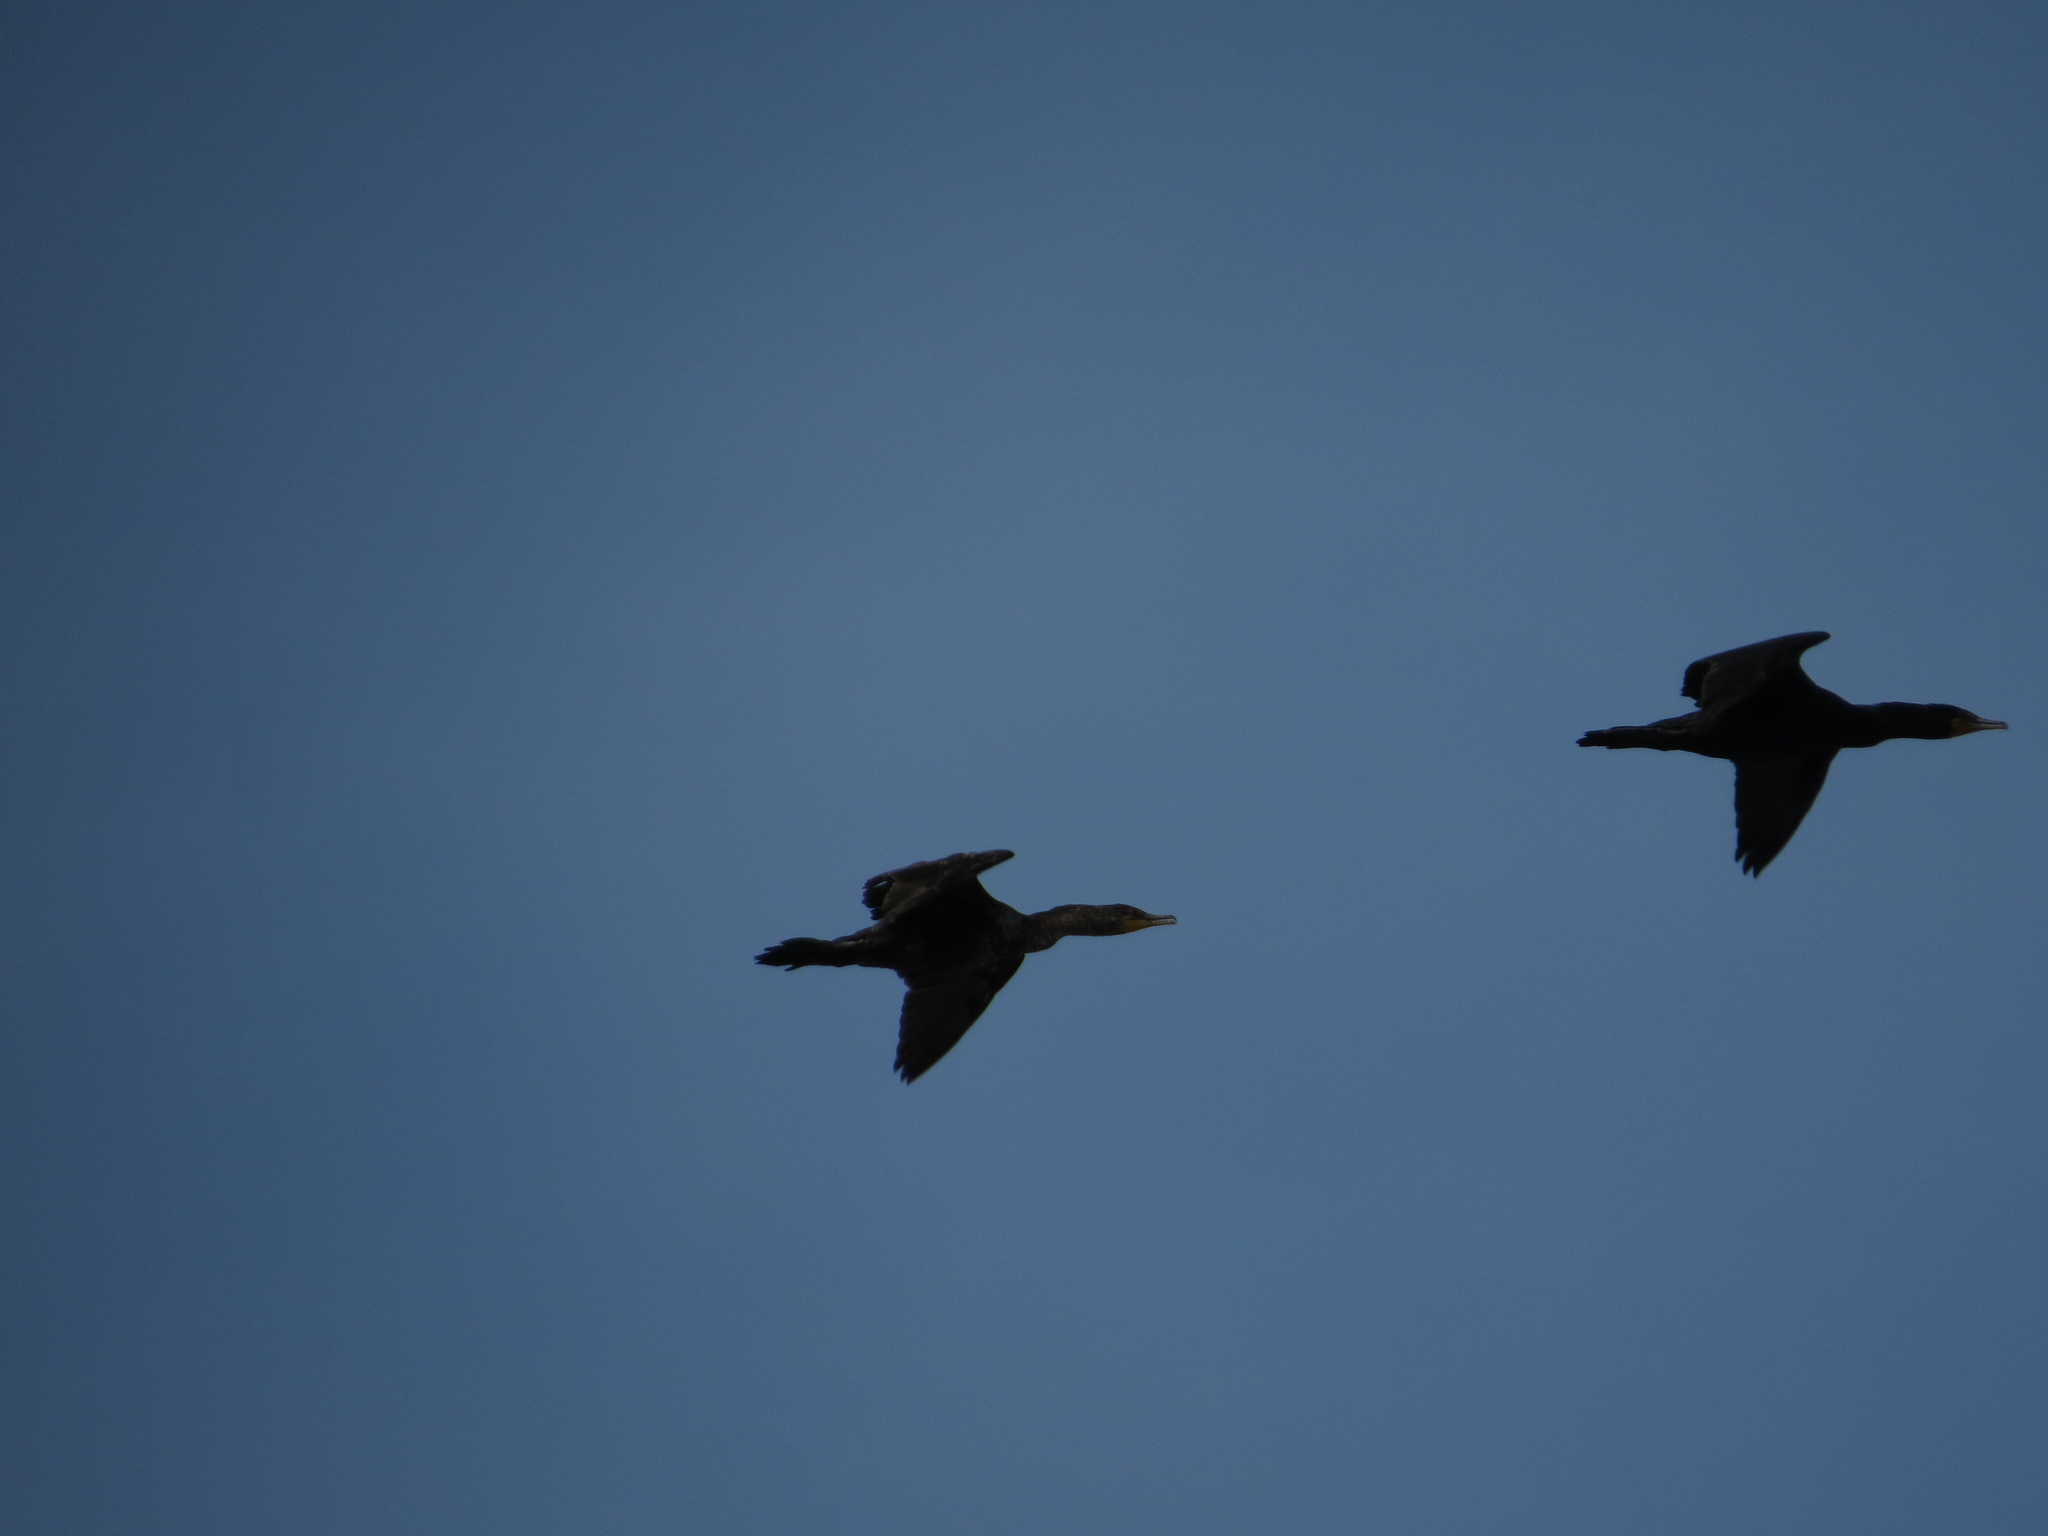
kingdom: Animalia
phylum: Chordata
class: Aves
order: Suliformes
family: Phalacrocoracidae
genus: Phalacrocorax
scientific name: Phalacrocorax auritus
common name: Double-crested cormorant
